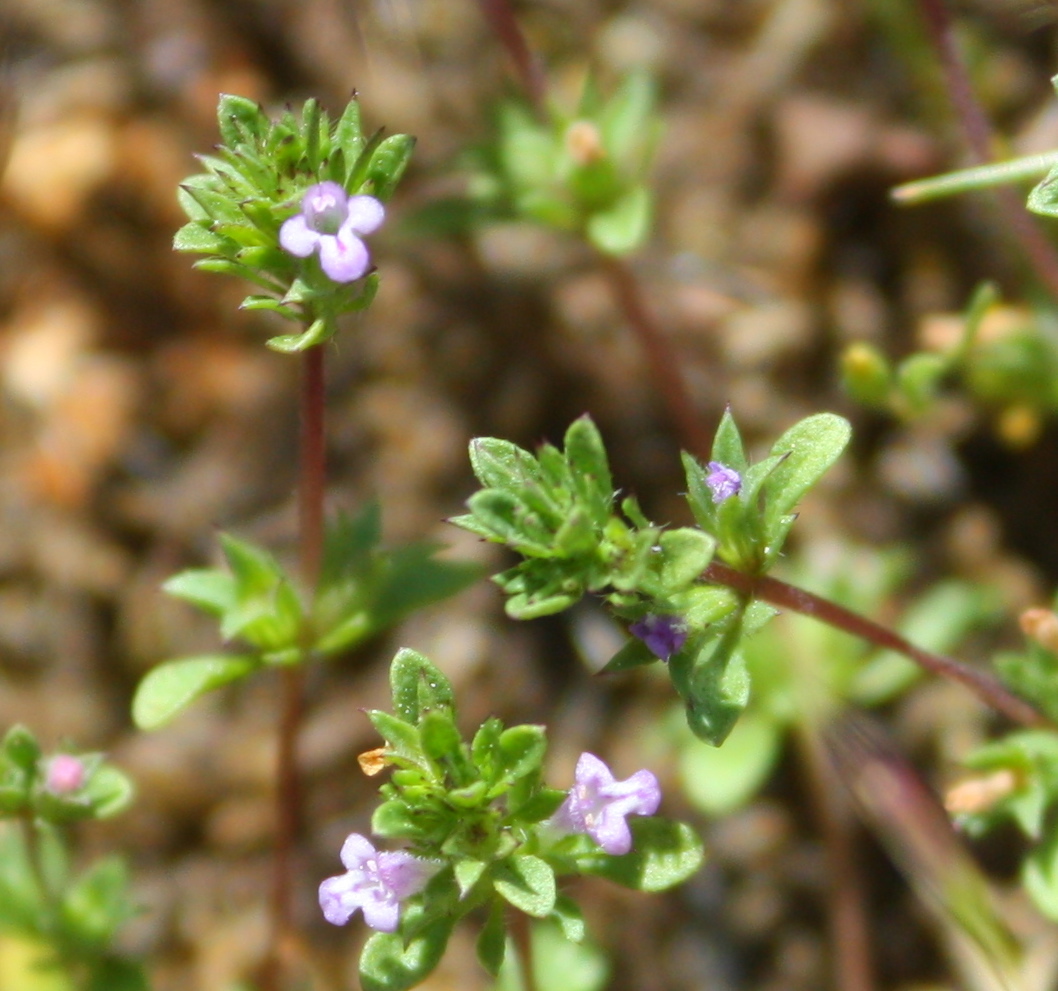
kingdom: Plantae
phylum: Tracheophyta
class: Magnoliopsida
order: Lamiales
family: Lamiaceae
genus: Pogogyne
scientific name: Pogogyne serpylloides
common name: Thymeleaf mesamint
